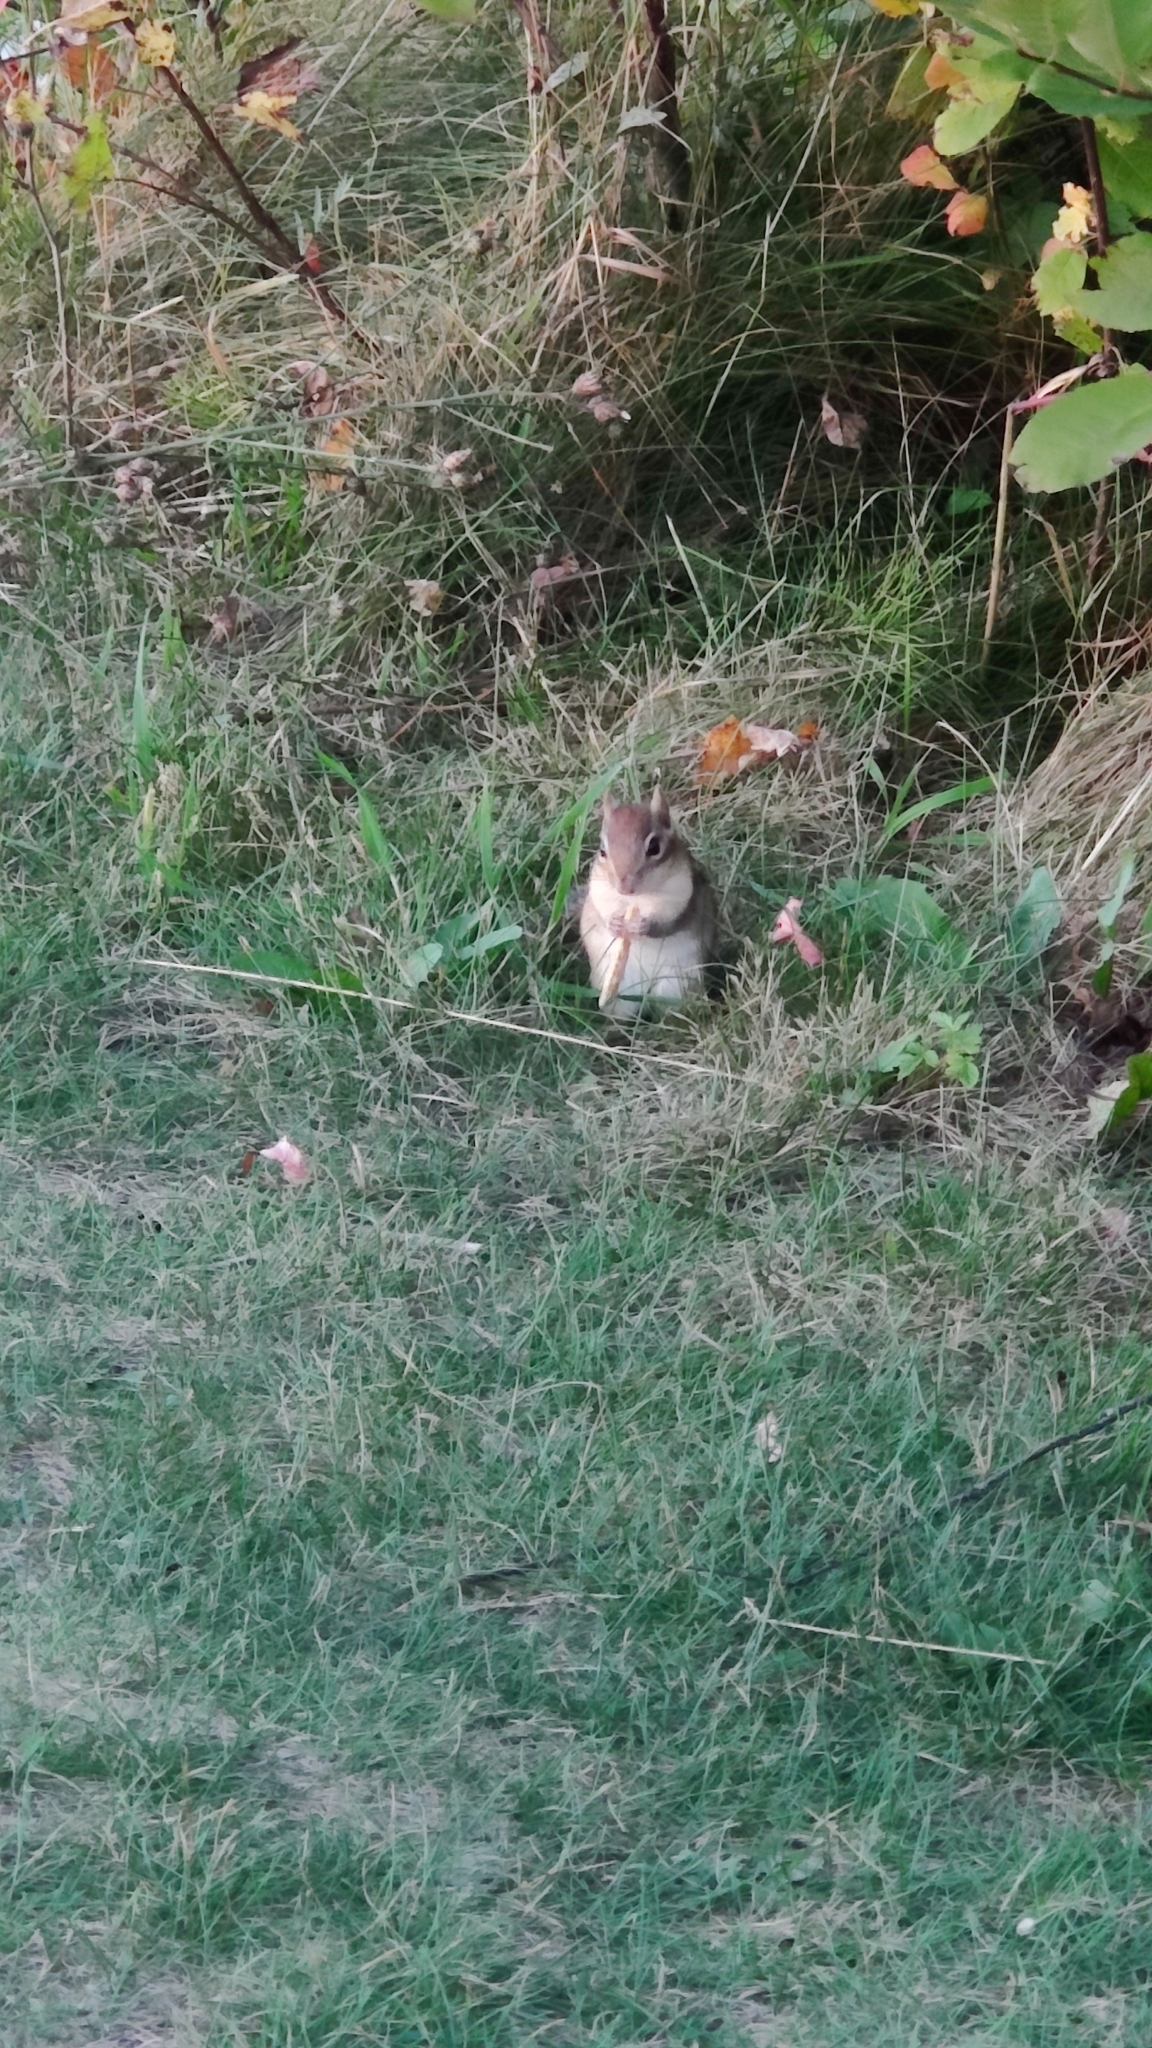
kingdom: Animalia
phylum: Chordata
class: Mammalia
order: Rodentia
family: Sciuridae
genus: Tamias
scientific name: Tamias striatus
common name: Eastern chipmunk
